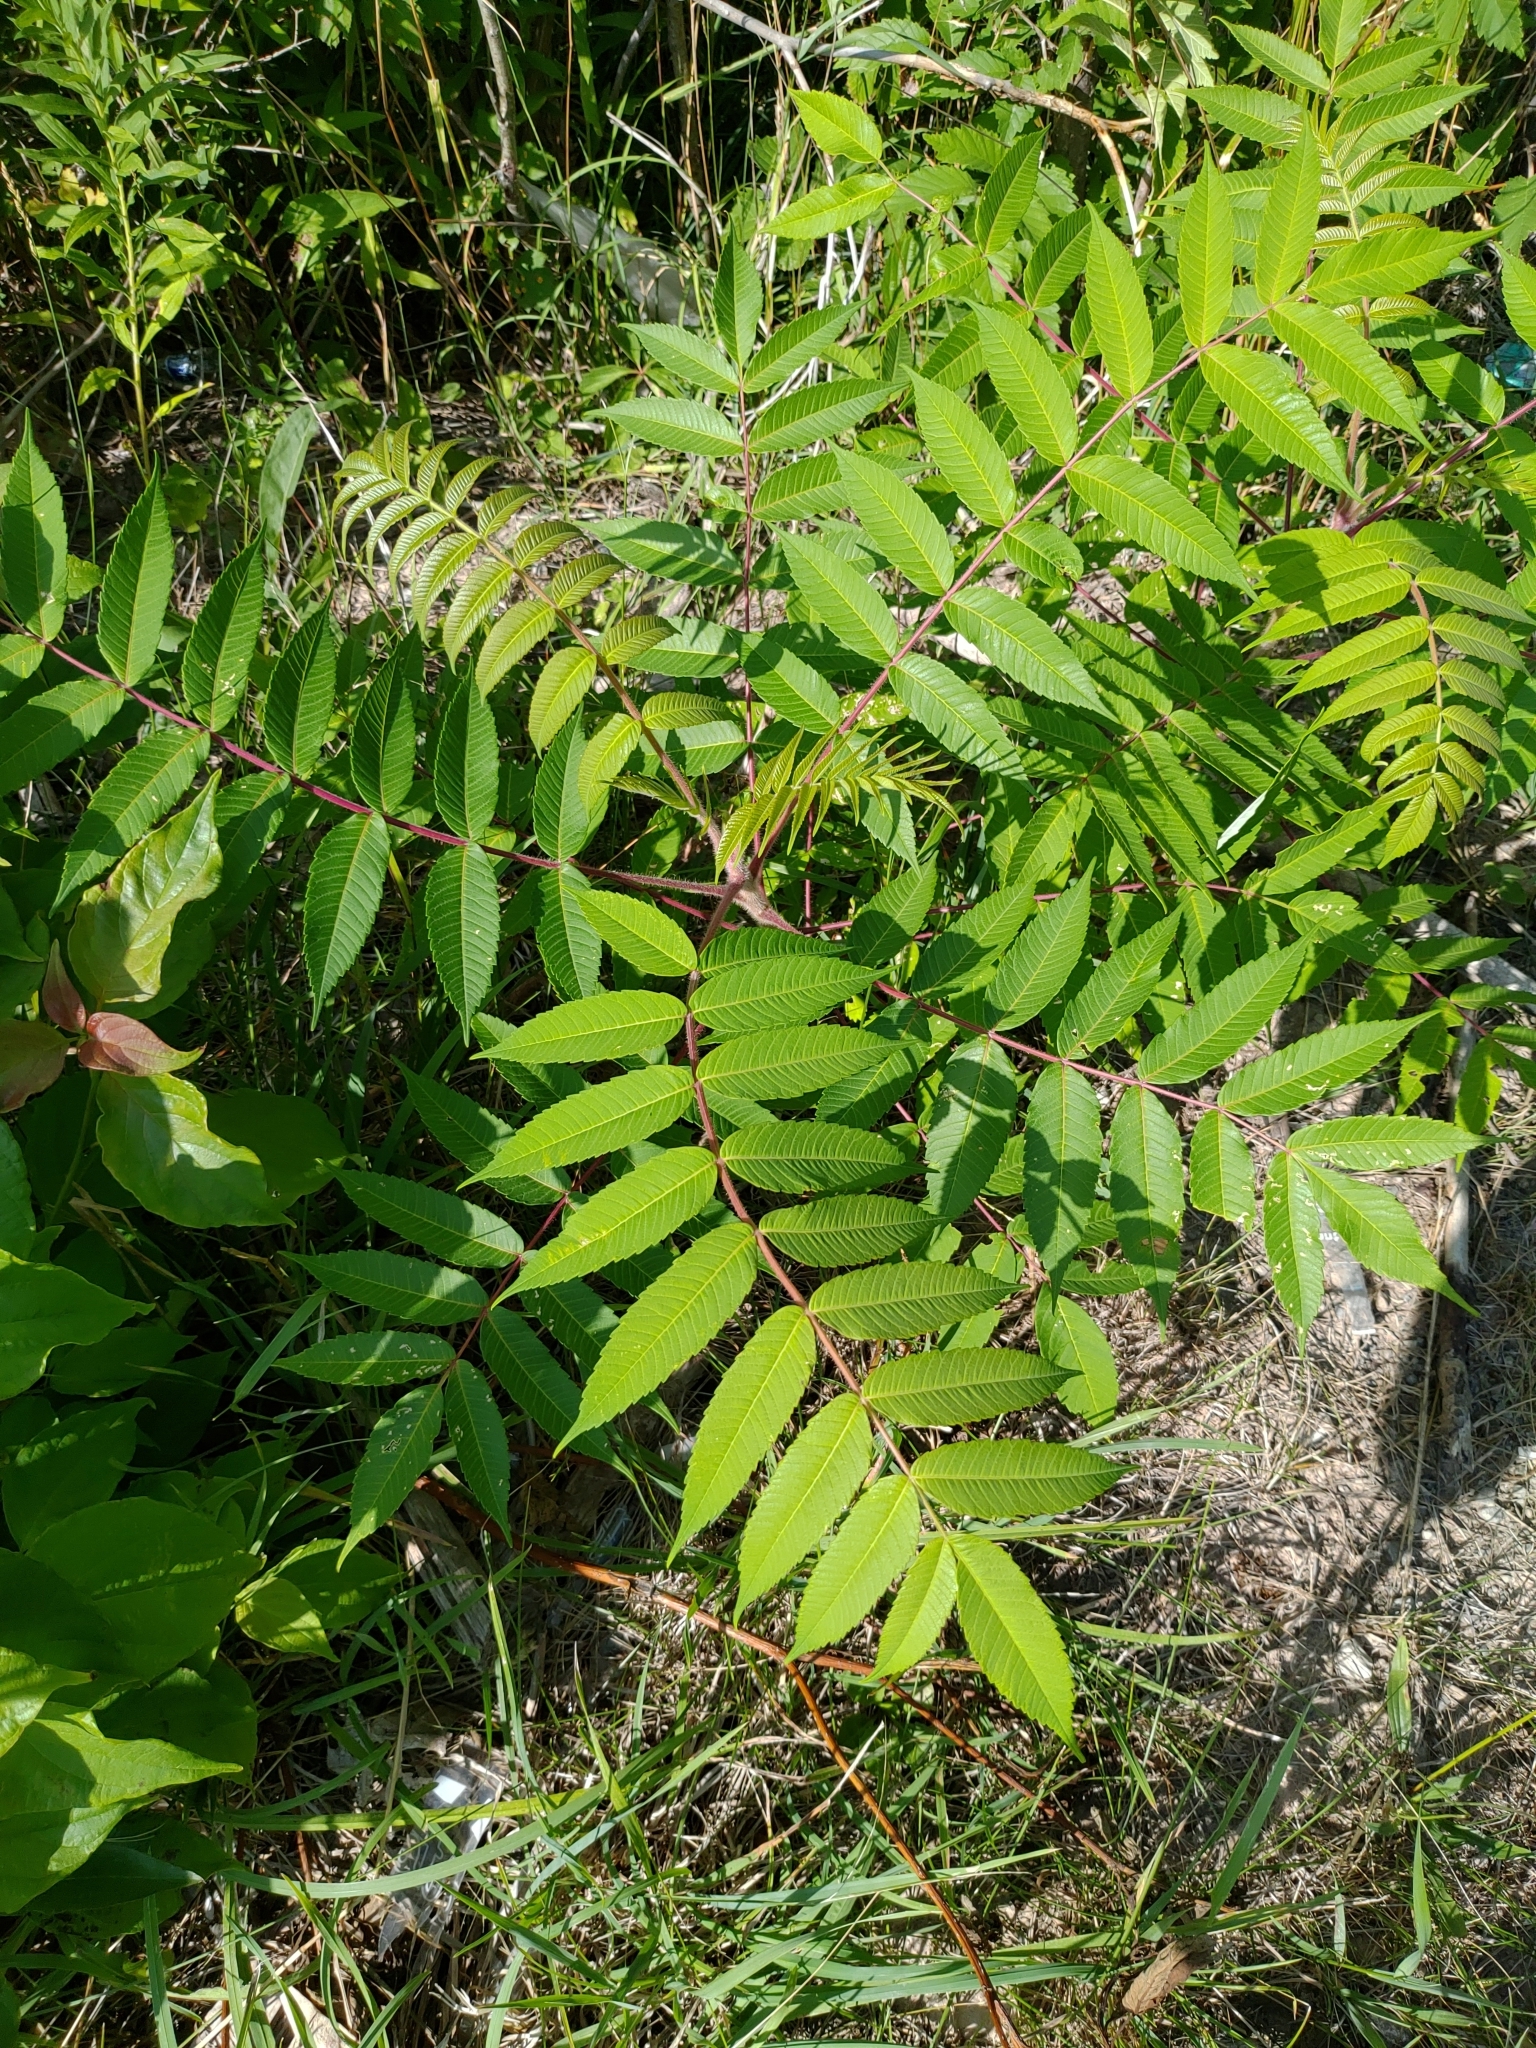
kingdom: Plantae
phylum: Tracheophyta
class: Magnoliopsida
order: Sapindales
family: Anacardiaceae
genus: Rhus
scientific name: Rhus typhina
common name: Staghorn sumac
